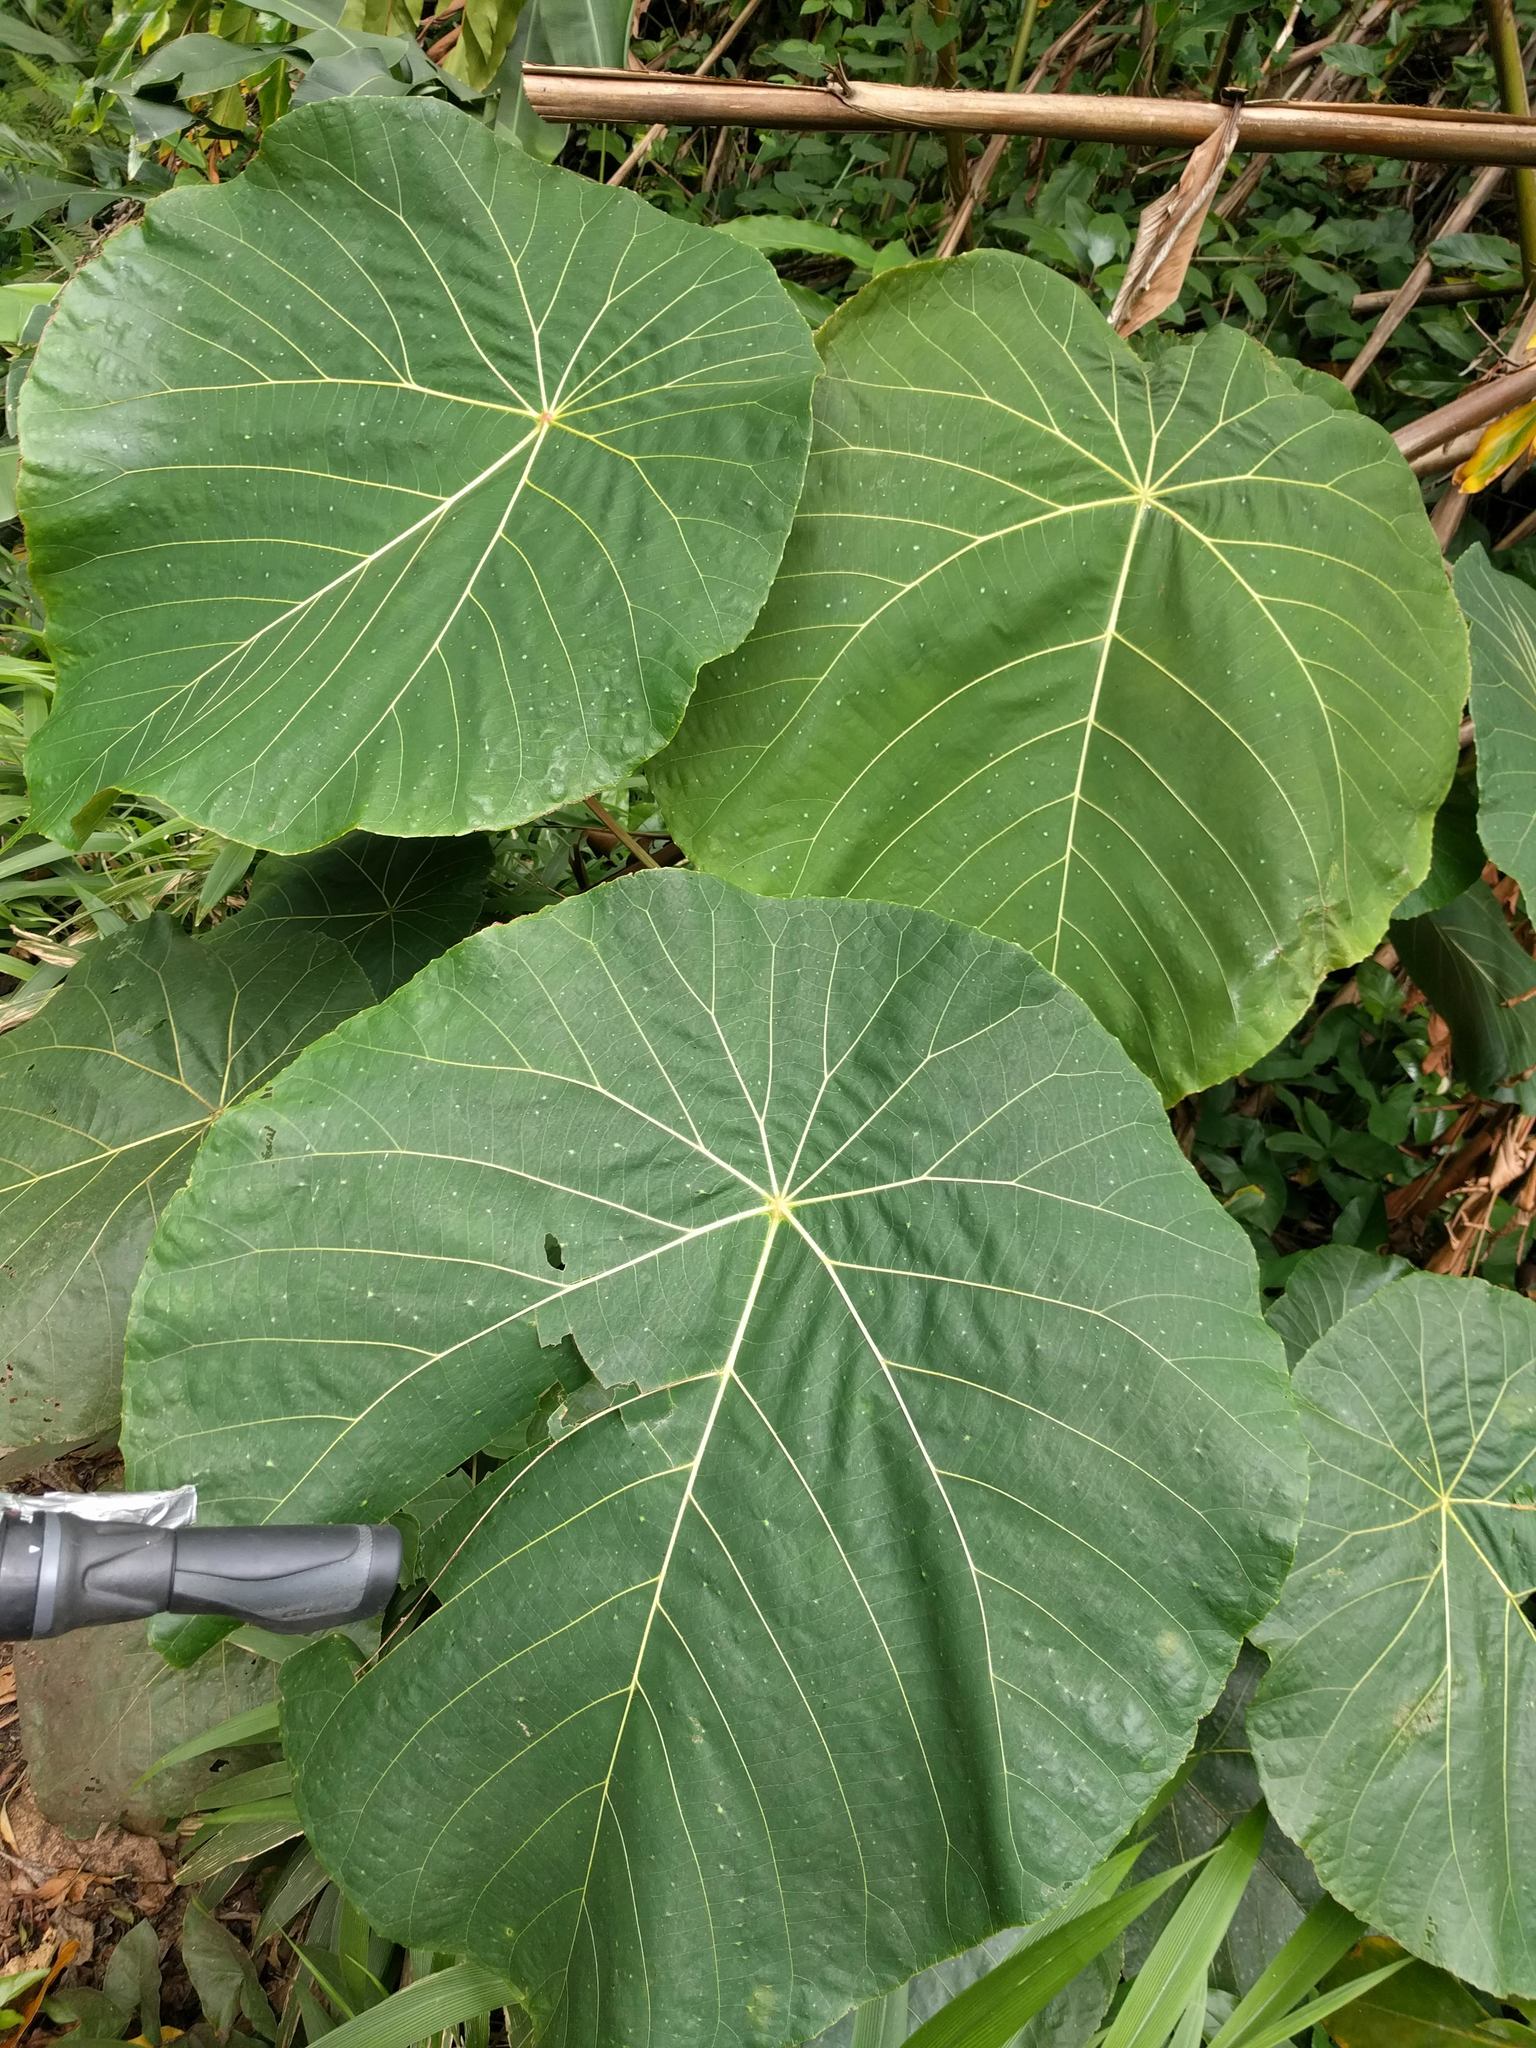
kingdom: Plantae
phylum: Tracheophyta
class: Magnoliopsida
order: Malpighiales
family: Euphorbiaceae
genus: Macaranga
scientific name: Macaranga mappa
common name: Pengua
